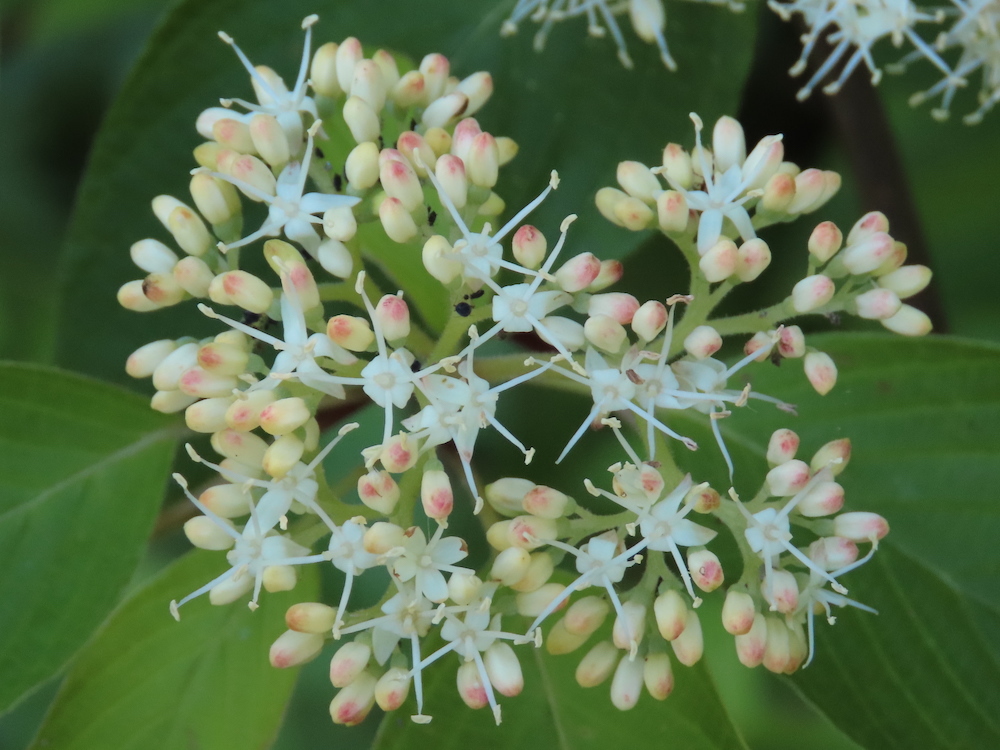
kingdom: Plantae
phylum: Tracheophyta
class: Magnoliopsida
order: Cornales
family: Cornaceae
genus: Cornus
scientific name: Cornus alternifolia
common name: Pagoda dogwood
